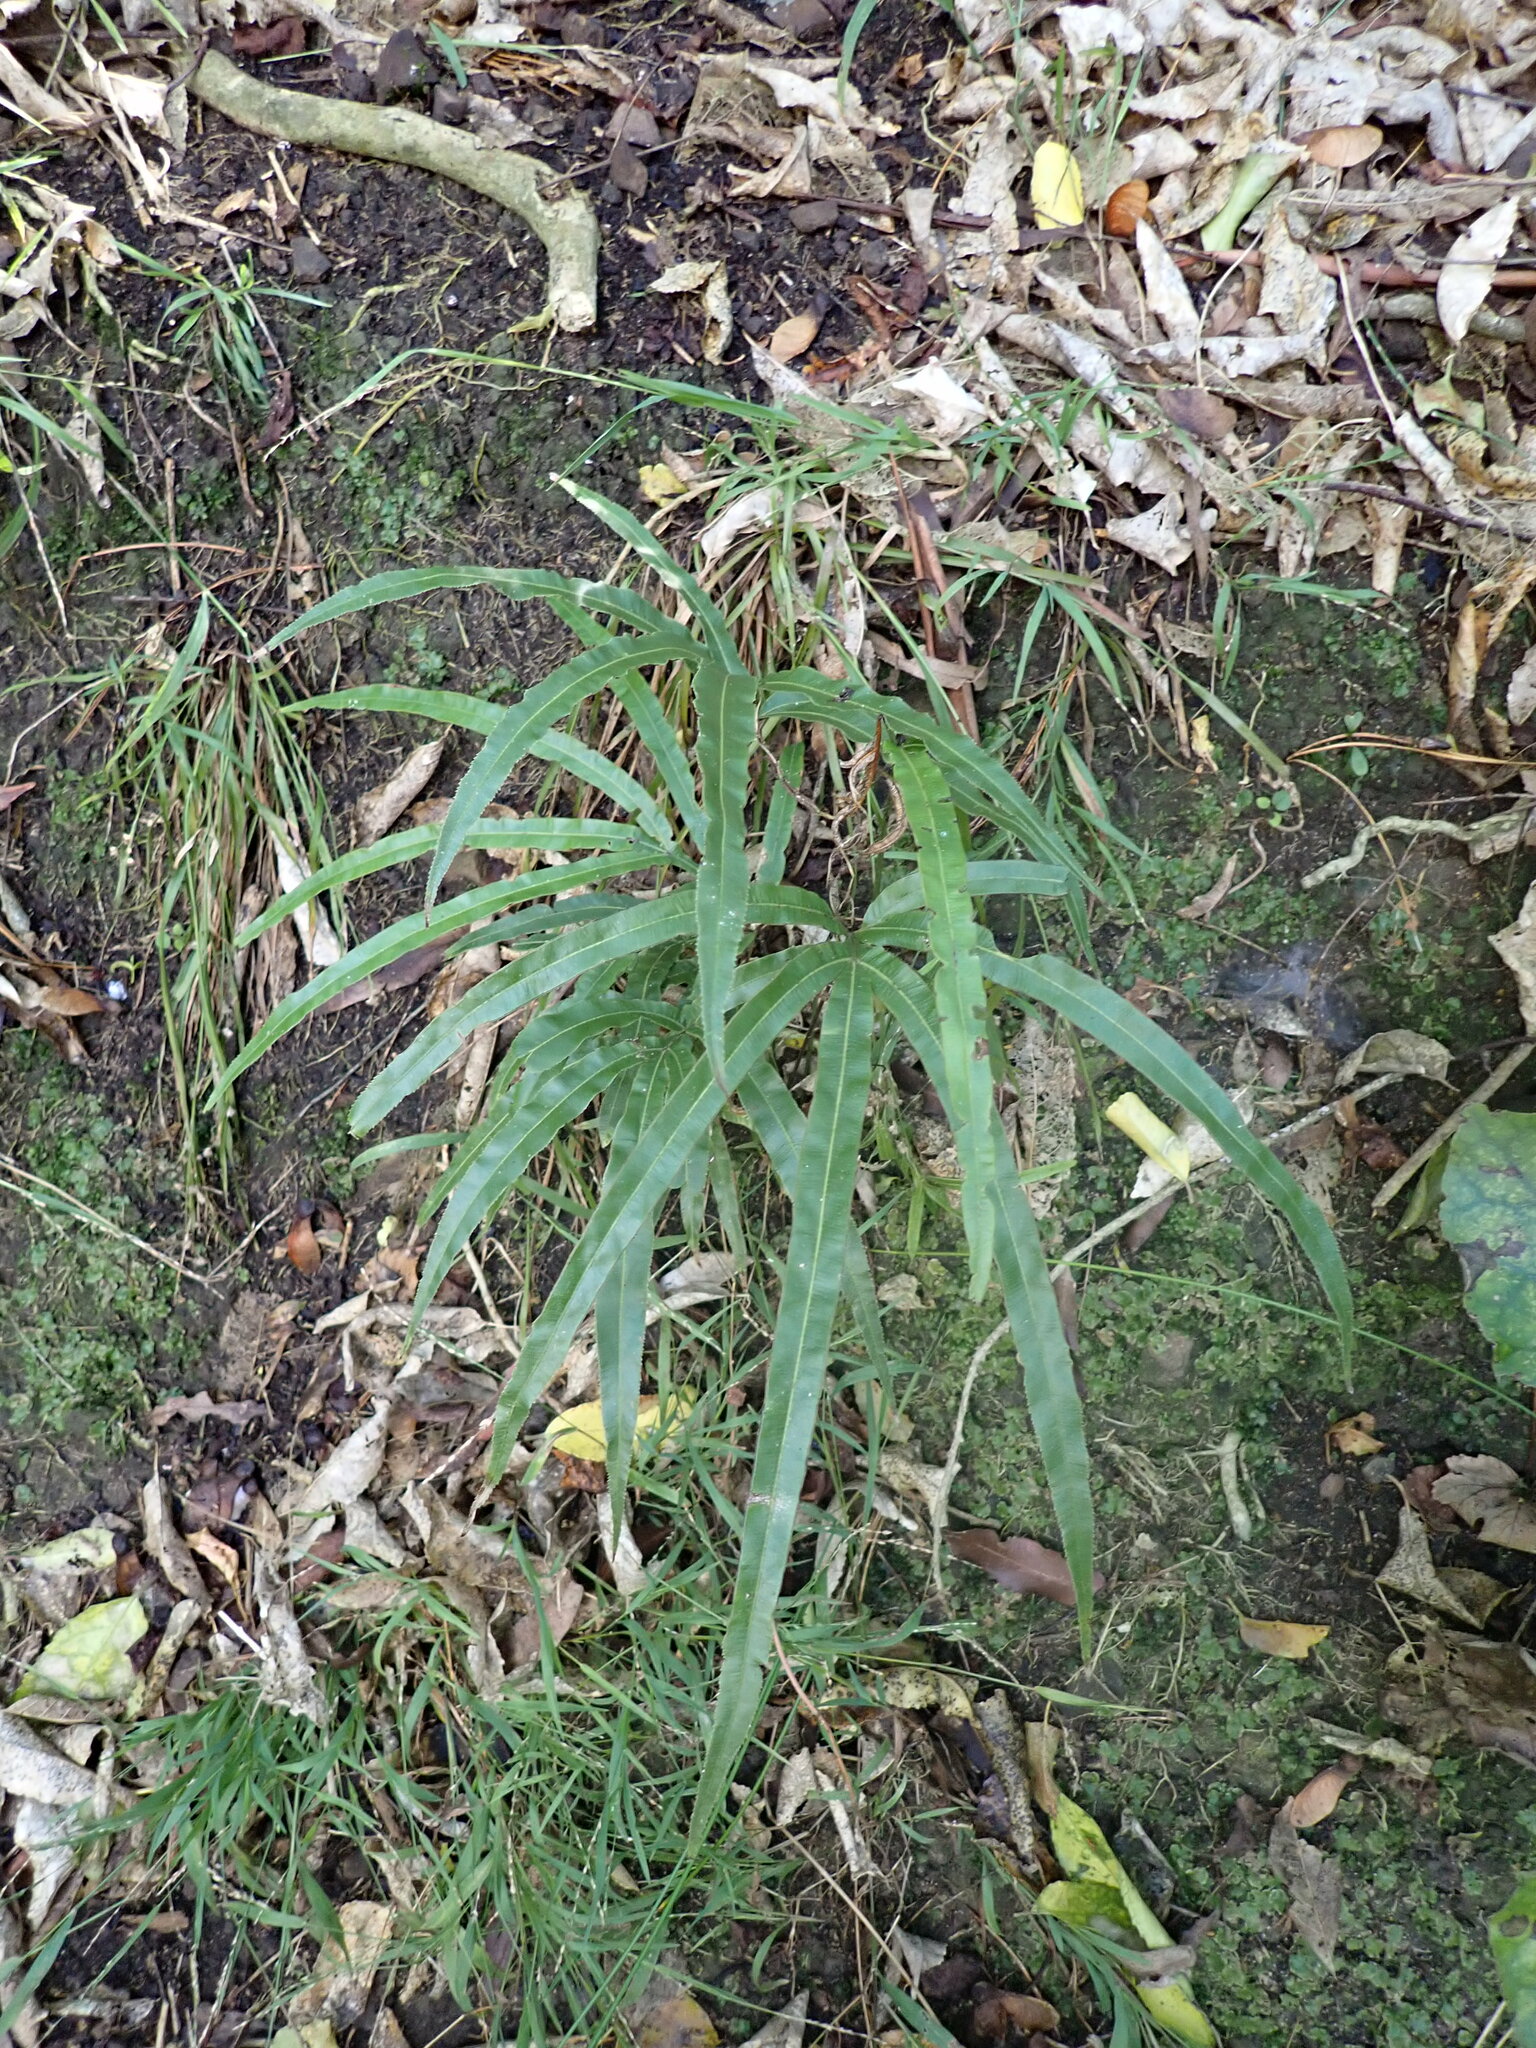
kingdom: Plantae
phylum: Tracheophyta
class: Polypodiopsida
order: Polypodiales
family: Pteridaceae
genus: Pteris
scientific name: Pteris cretica
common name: Ribbon fern
